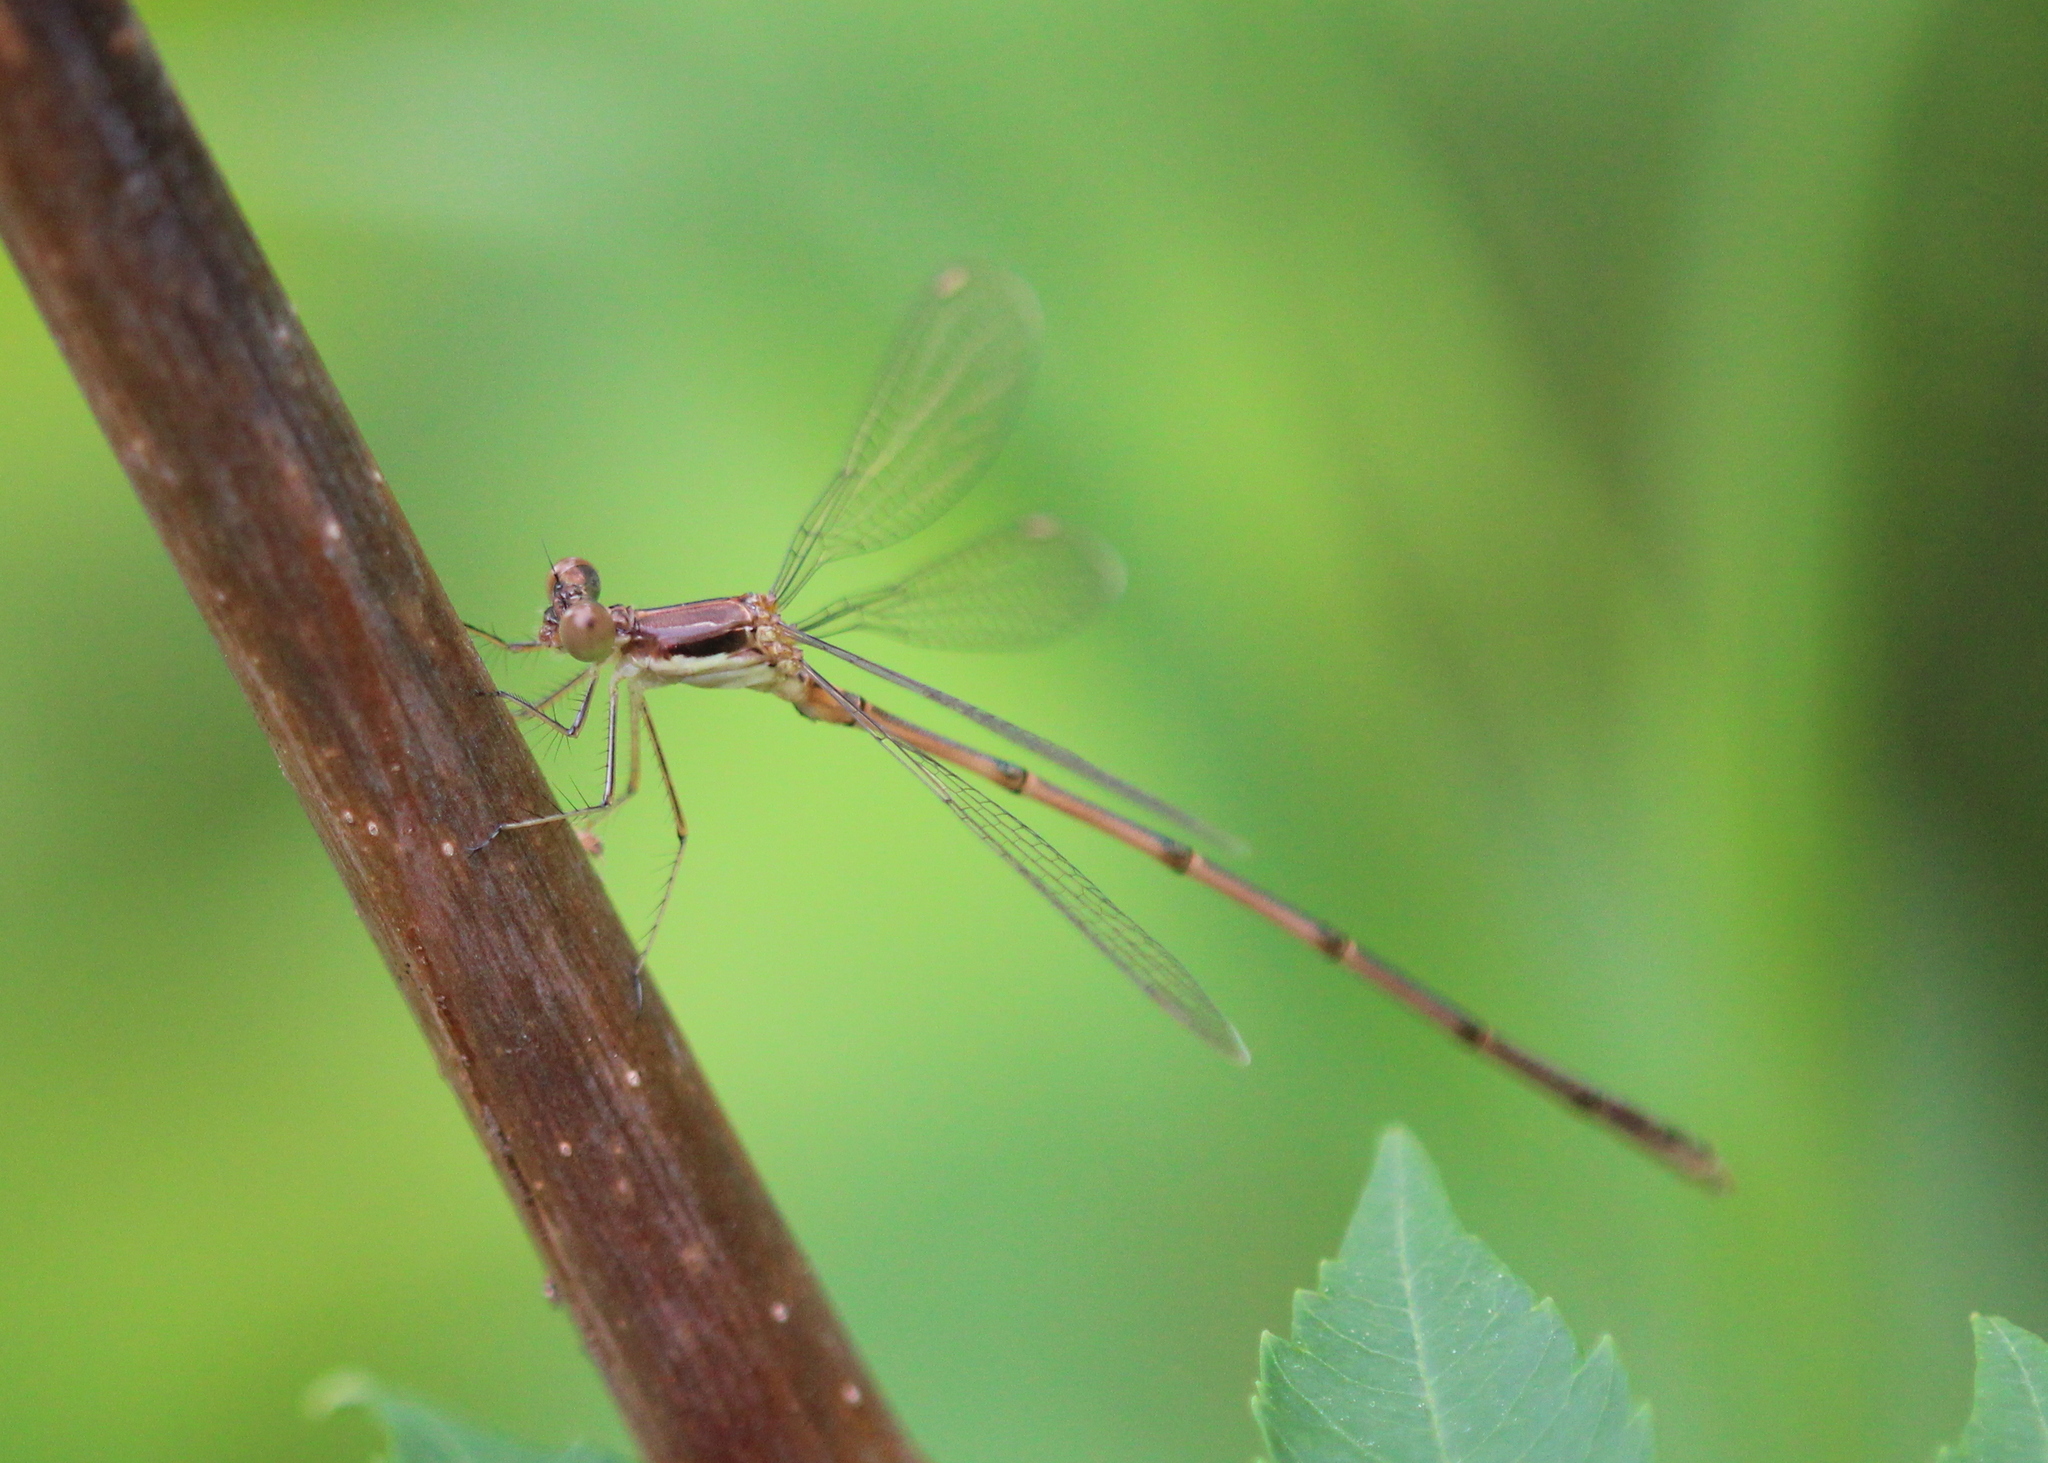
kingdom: Animalia
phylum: Arthropoda
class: Insecta
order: Odonata
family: Lestidae
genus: Lestes
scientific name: Lestes rectangularis
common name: Slender spreadwing
